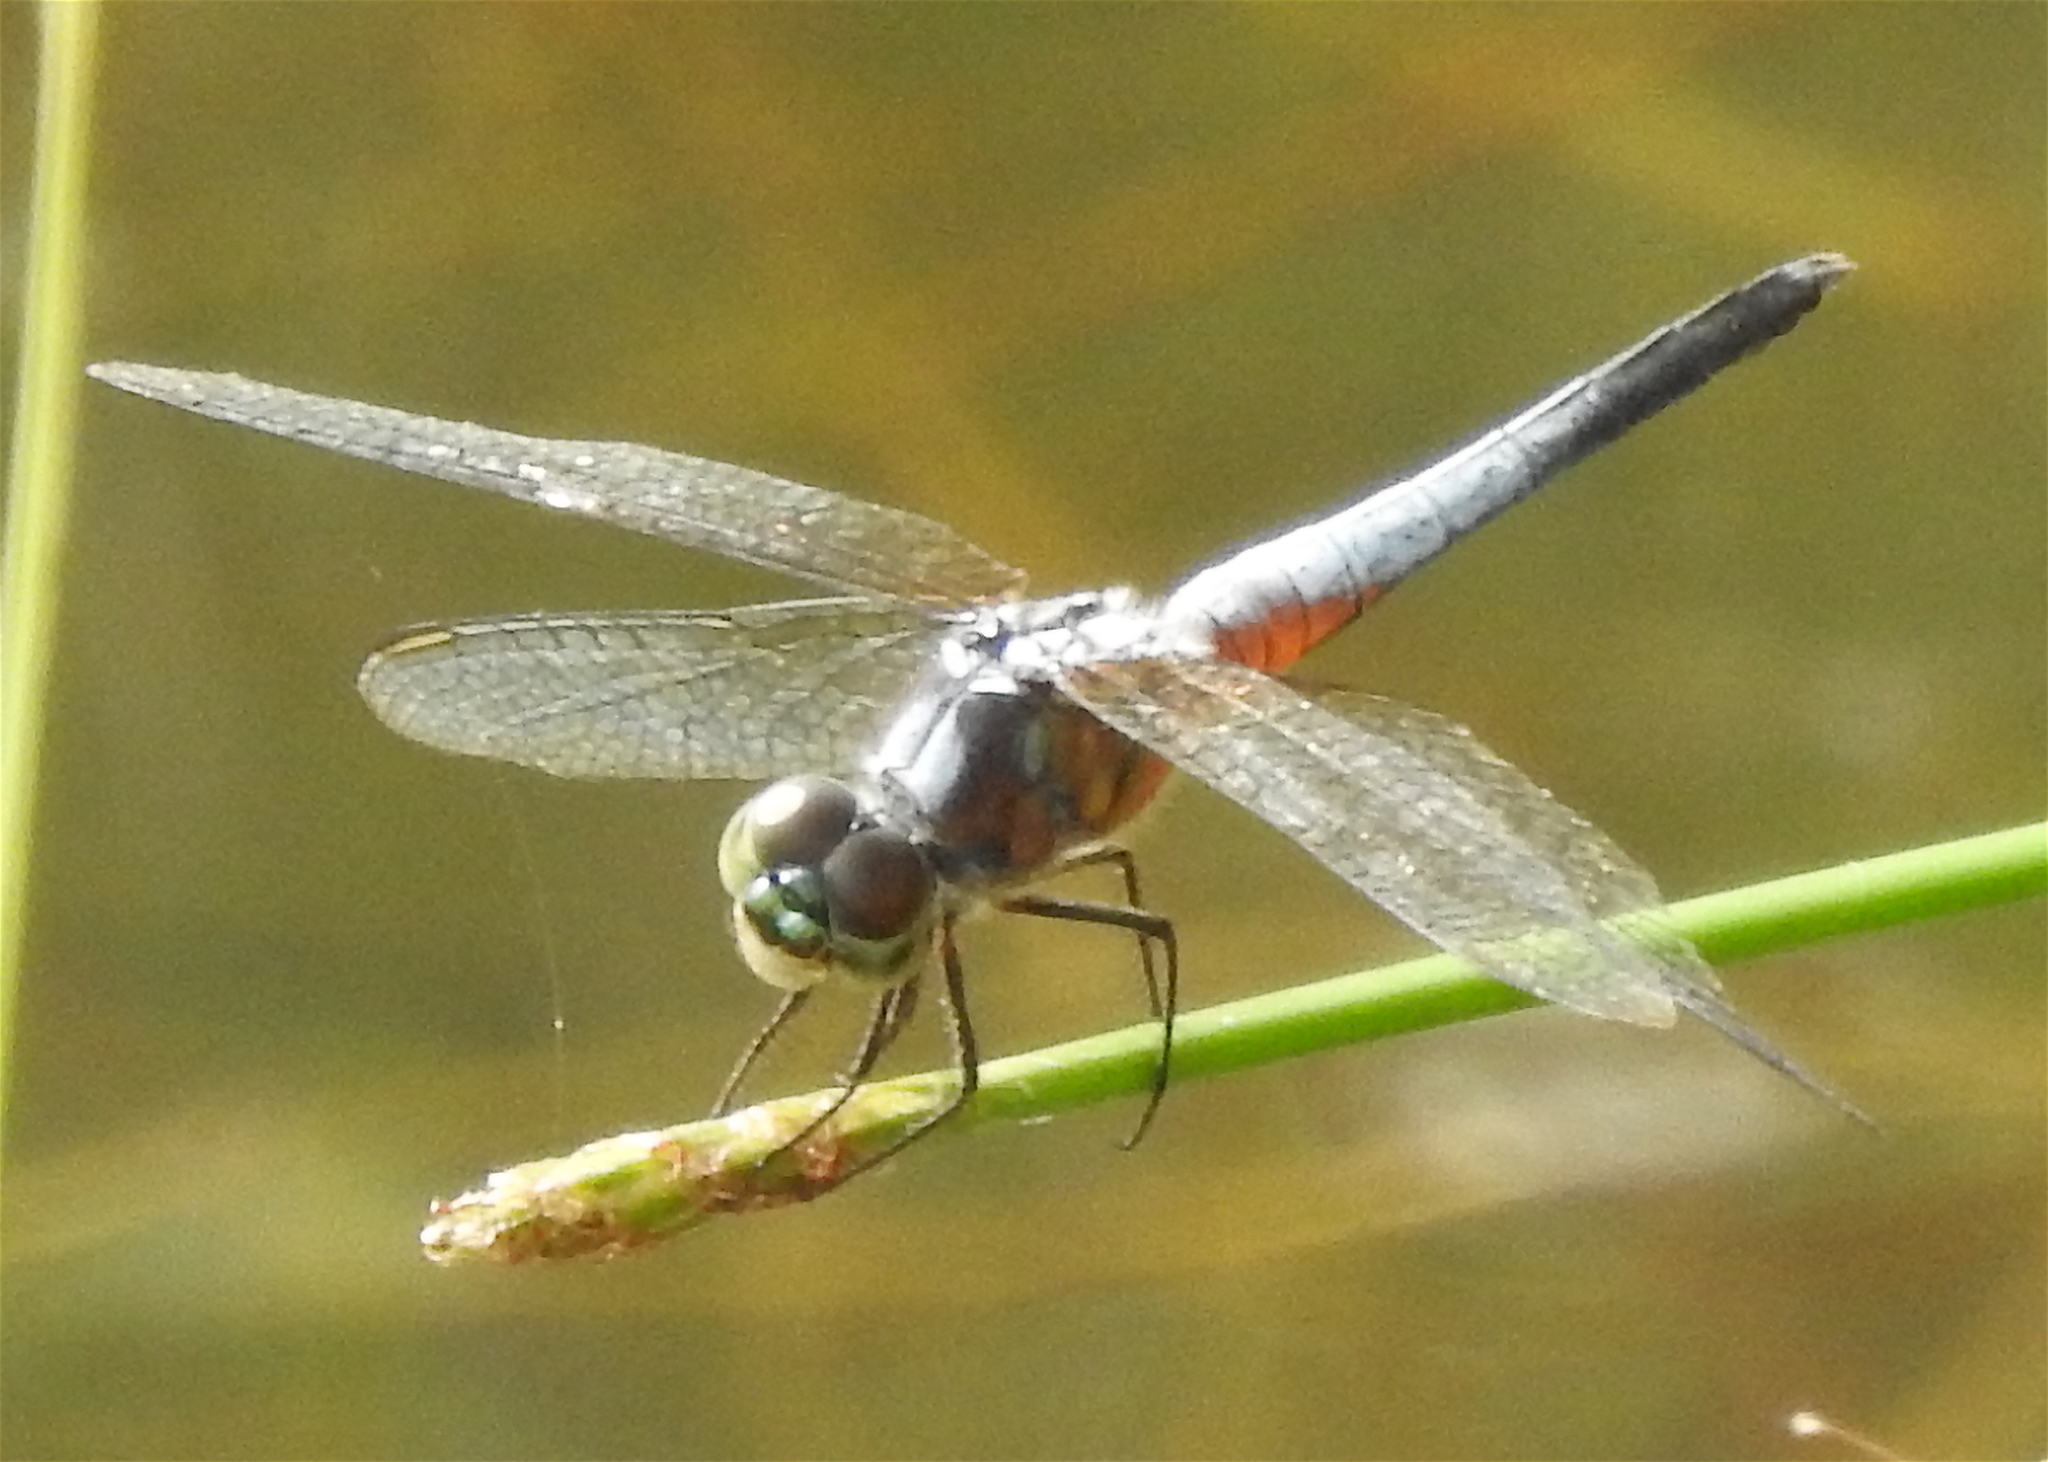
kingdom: Animalia
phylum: Arthropoda
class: Insecta
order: Odonata
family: Libellulidae
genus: Brachydiplax
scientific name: Brachydiplax chalybea
